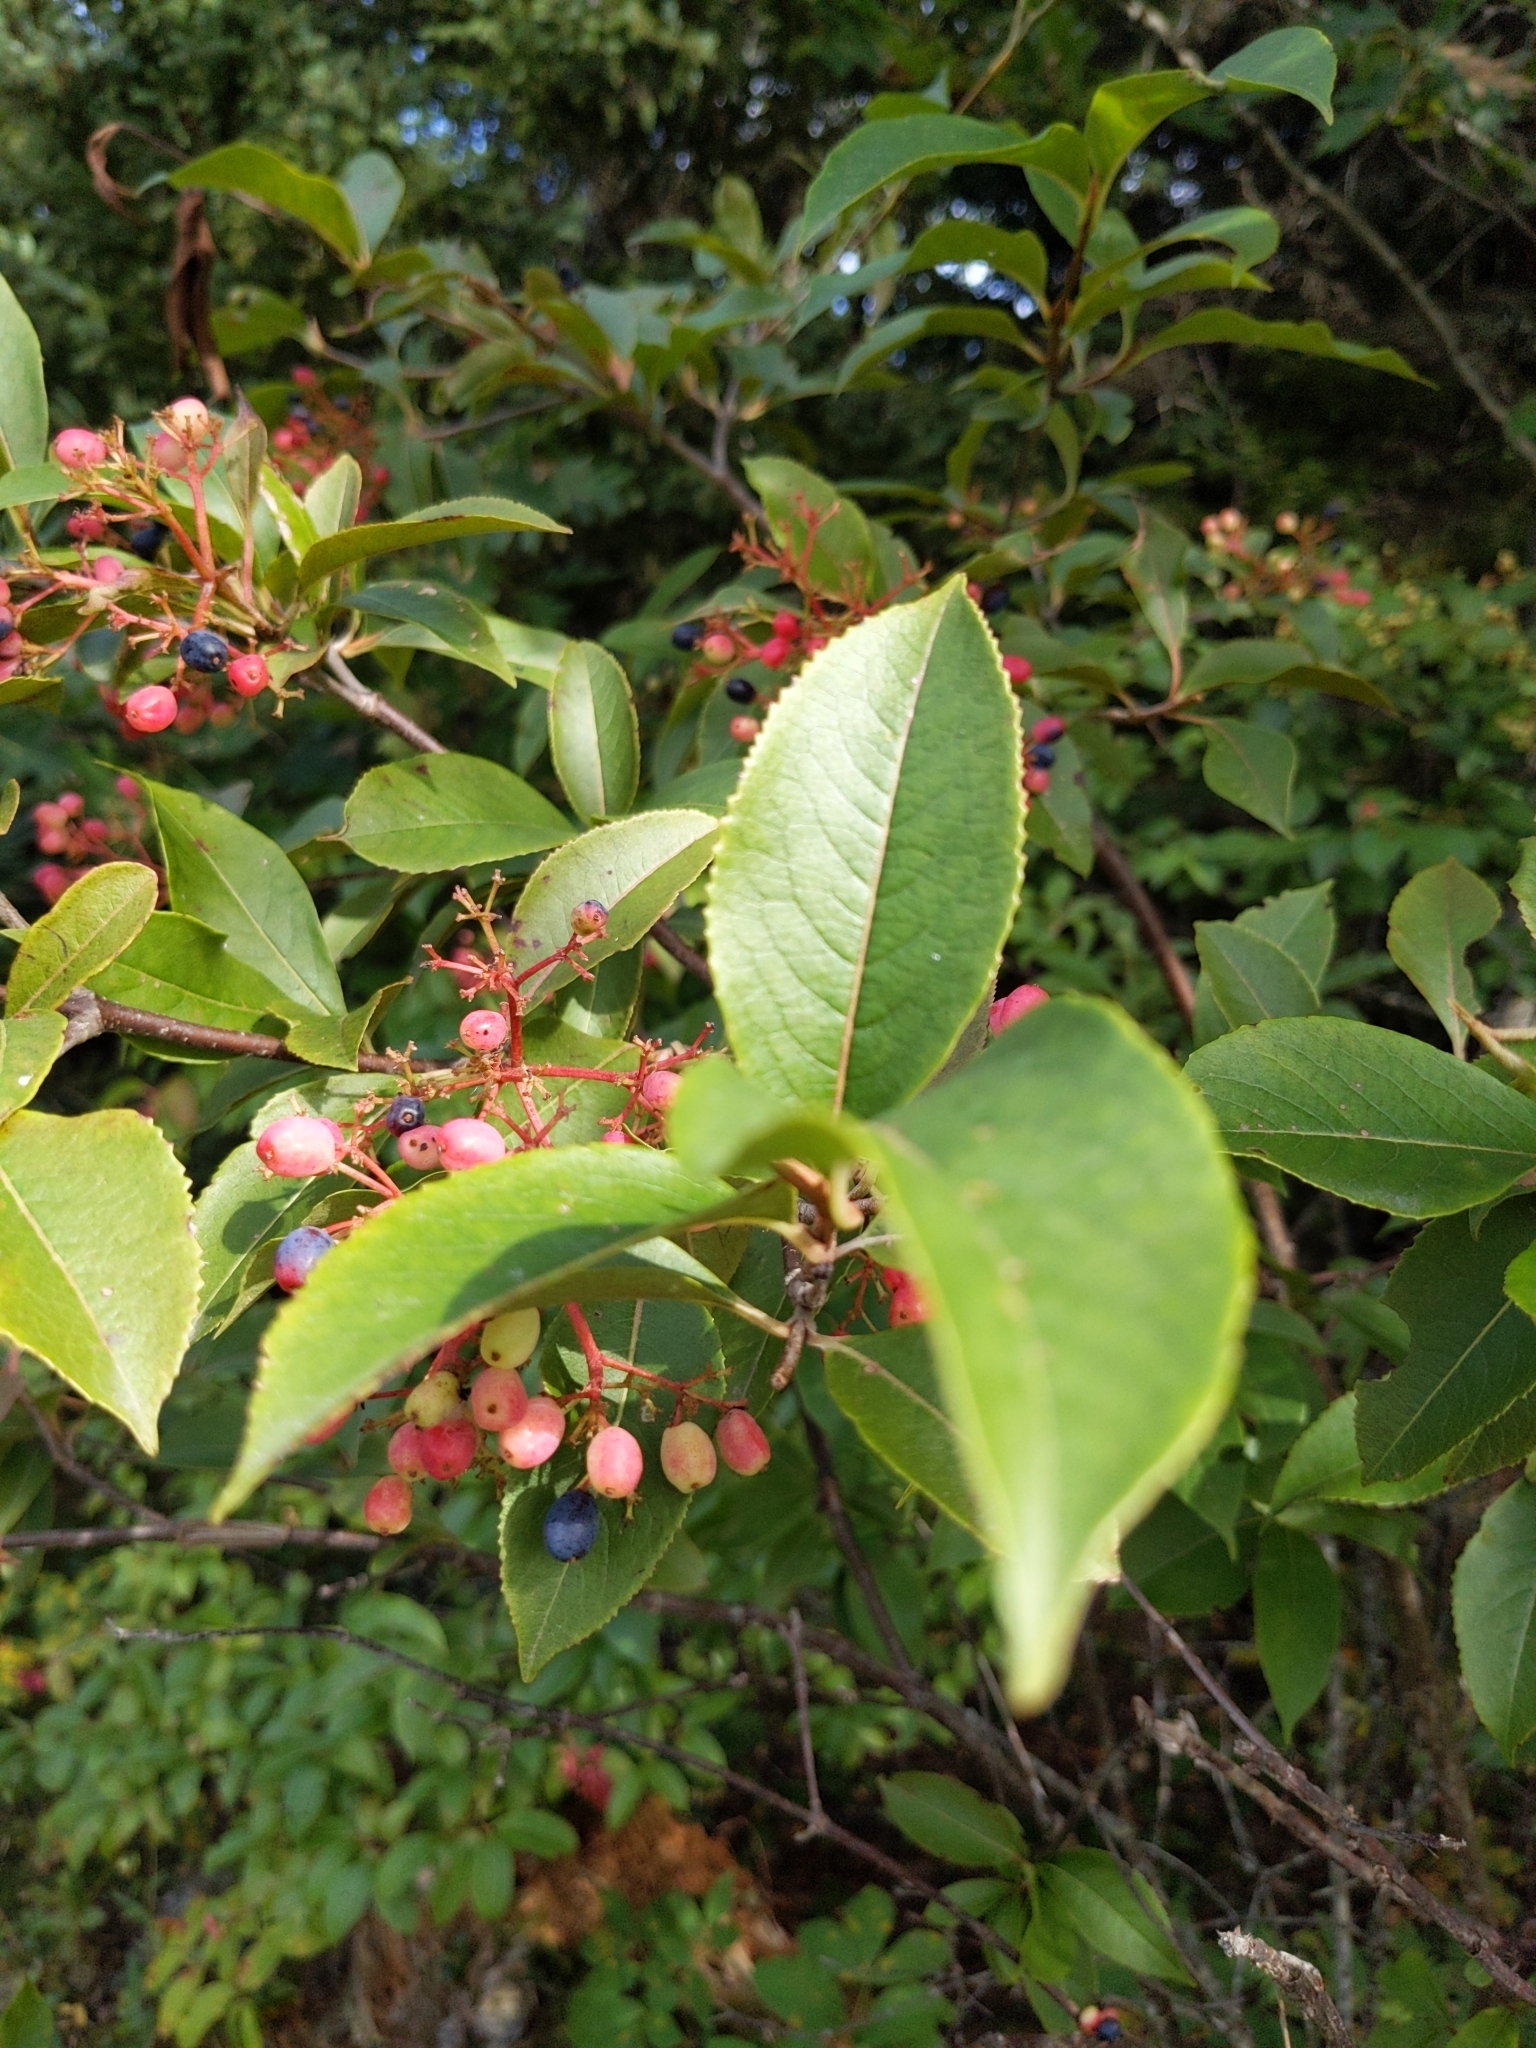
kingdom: Plantae
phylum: Tracheophyta
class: Magnoliopsida
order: Dipsacales
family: Viburnaceae
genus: Viburnum
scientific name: Viburnum cassinoides
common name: Swamp haw
